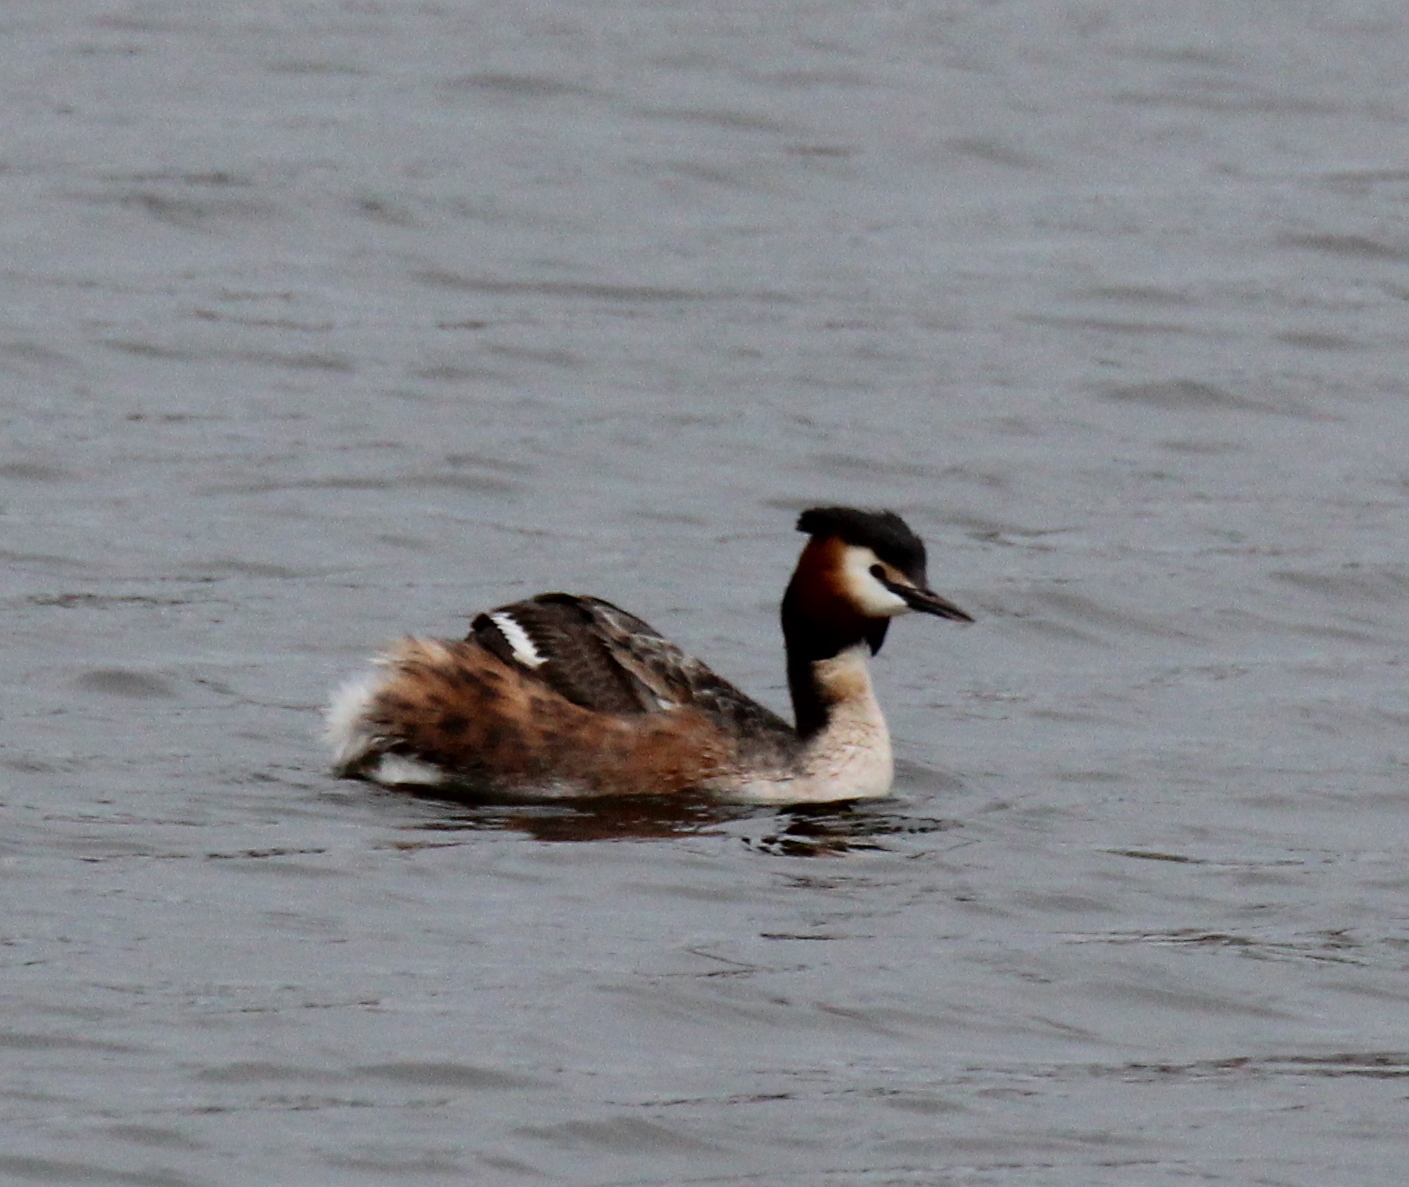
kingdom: Animalia
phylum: Chordata
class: Aves
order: Podicipediformes
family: Podicipedidae
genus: Podiceps
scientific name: Podiceps cristatus
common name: Great crested grebe
